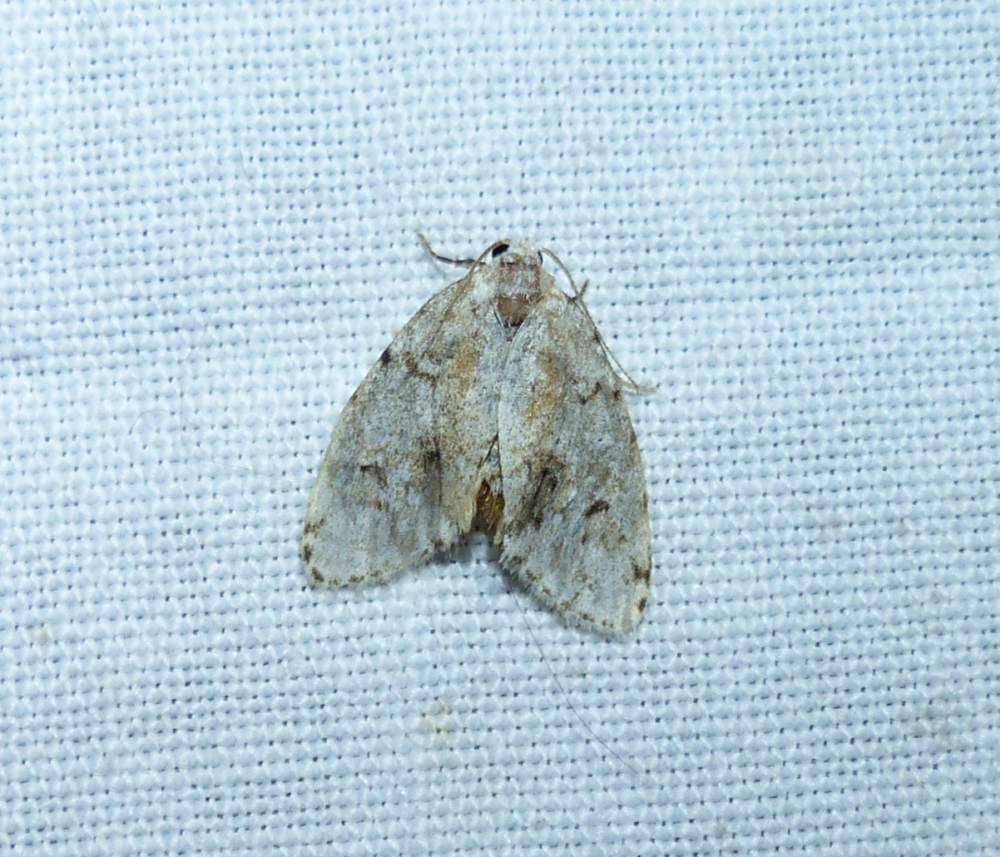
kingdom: Animalia
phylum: Arthropoda
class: Insecta
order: Lepidoptera
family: Erebidae
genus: Clemensia
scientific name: Clemensia albata
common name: Little white lichen moth
